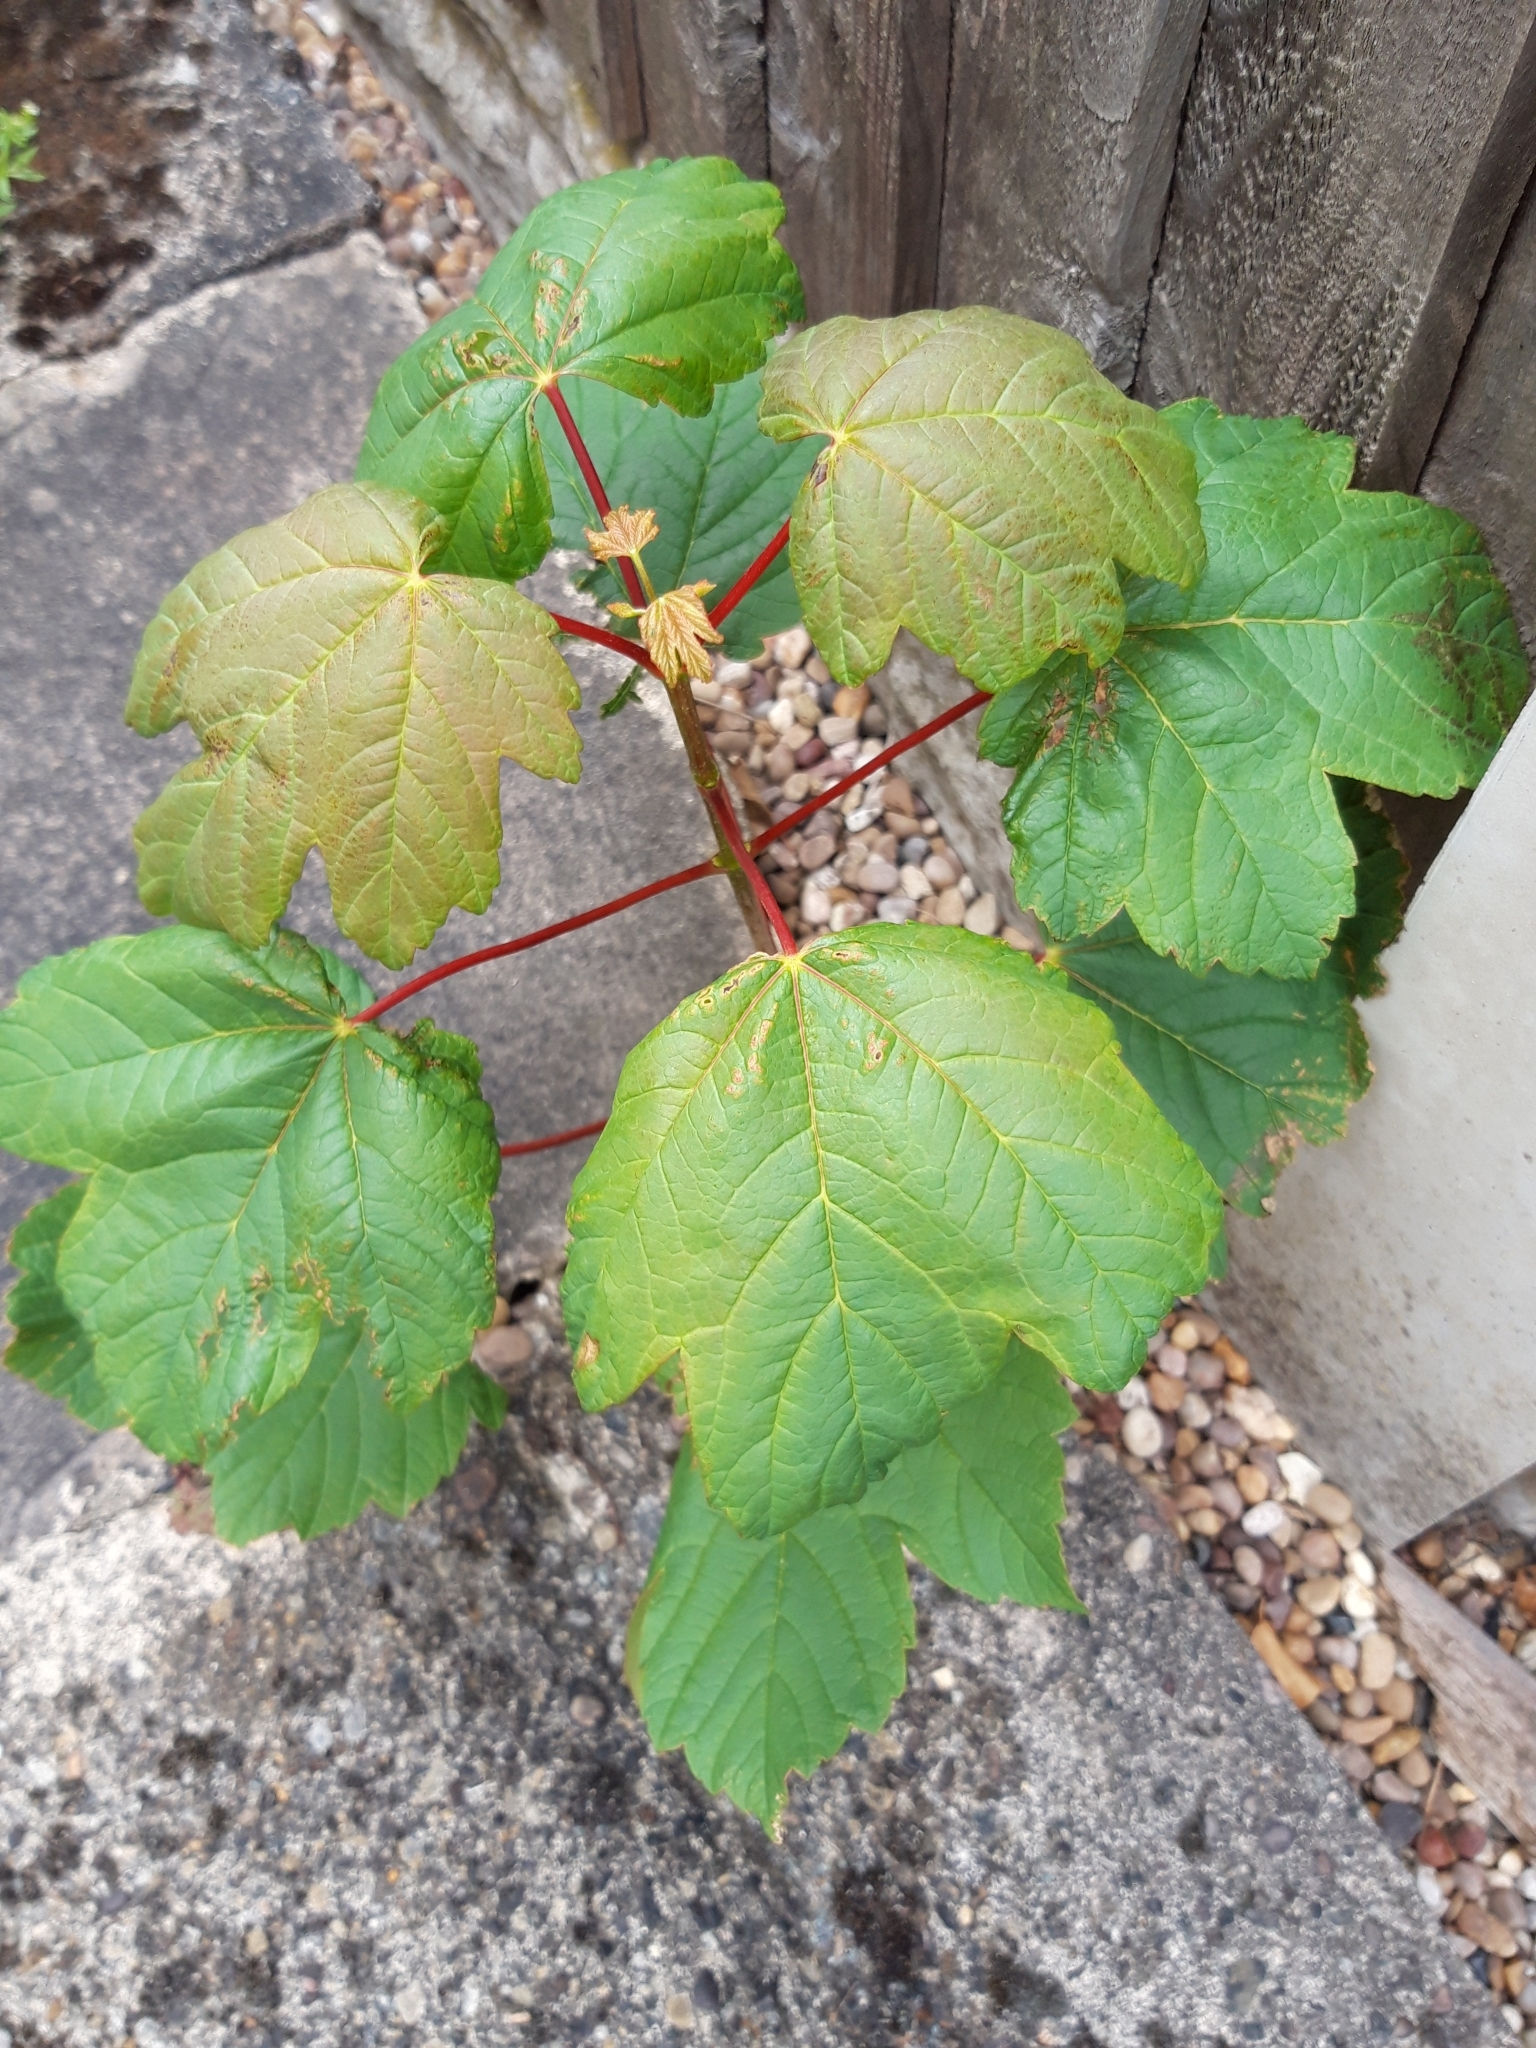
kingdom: Plantae
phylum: Tracheophyta
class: Magnoliopsida
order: Sapindales
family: Sapindaceae
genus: Acer
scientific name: Acer pseudoplatanus
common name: Sycamore
